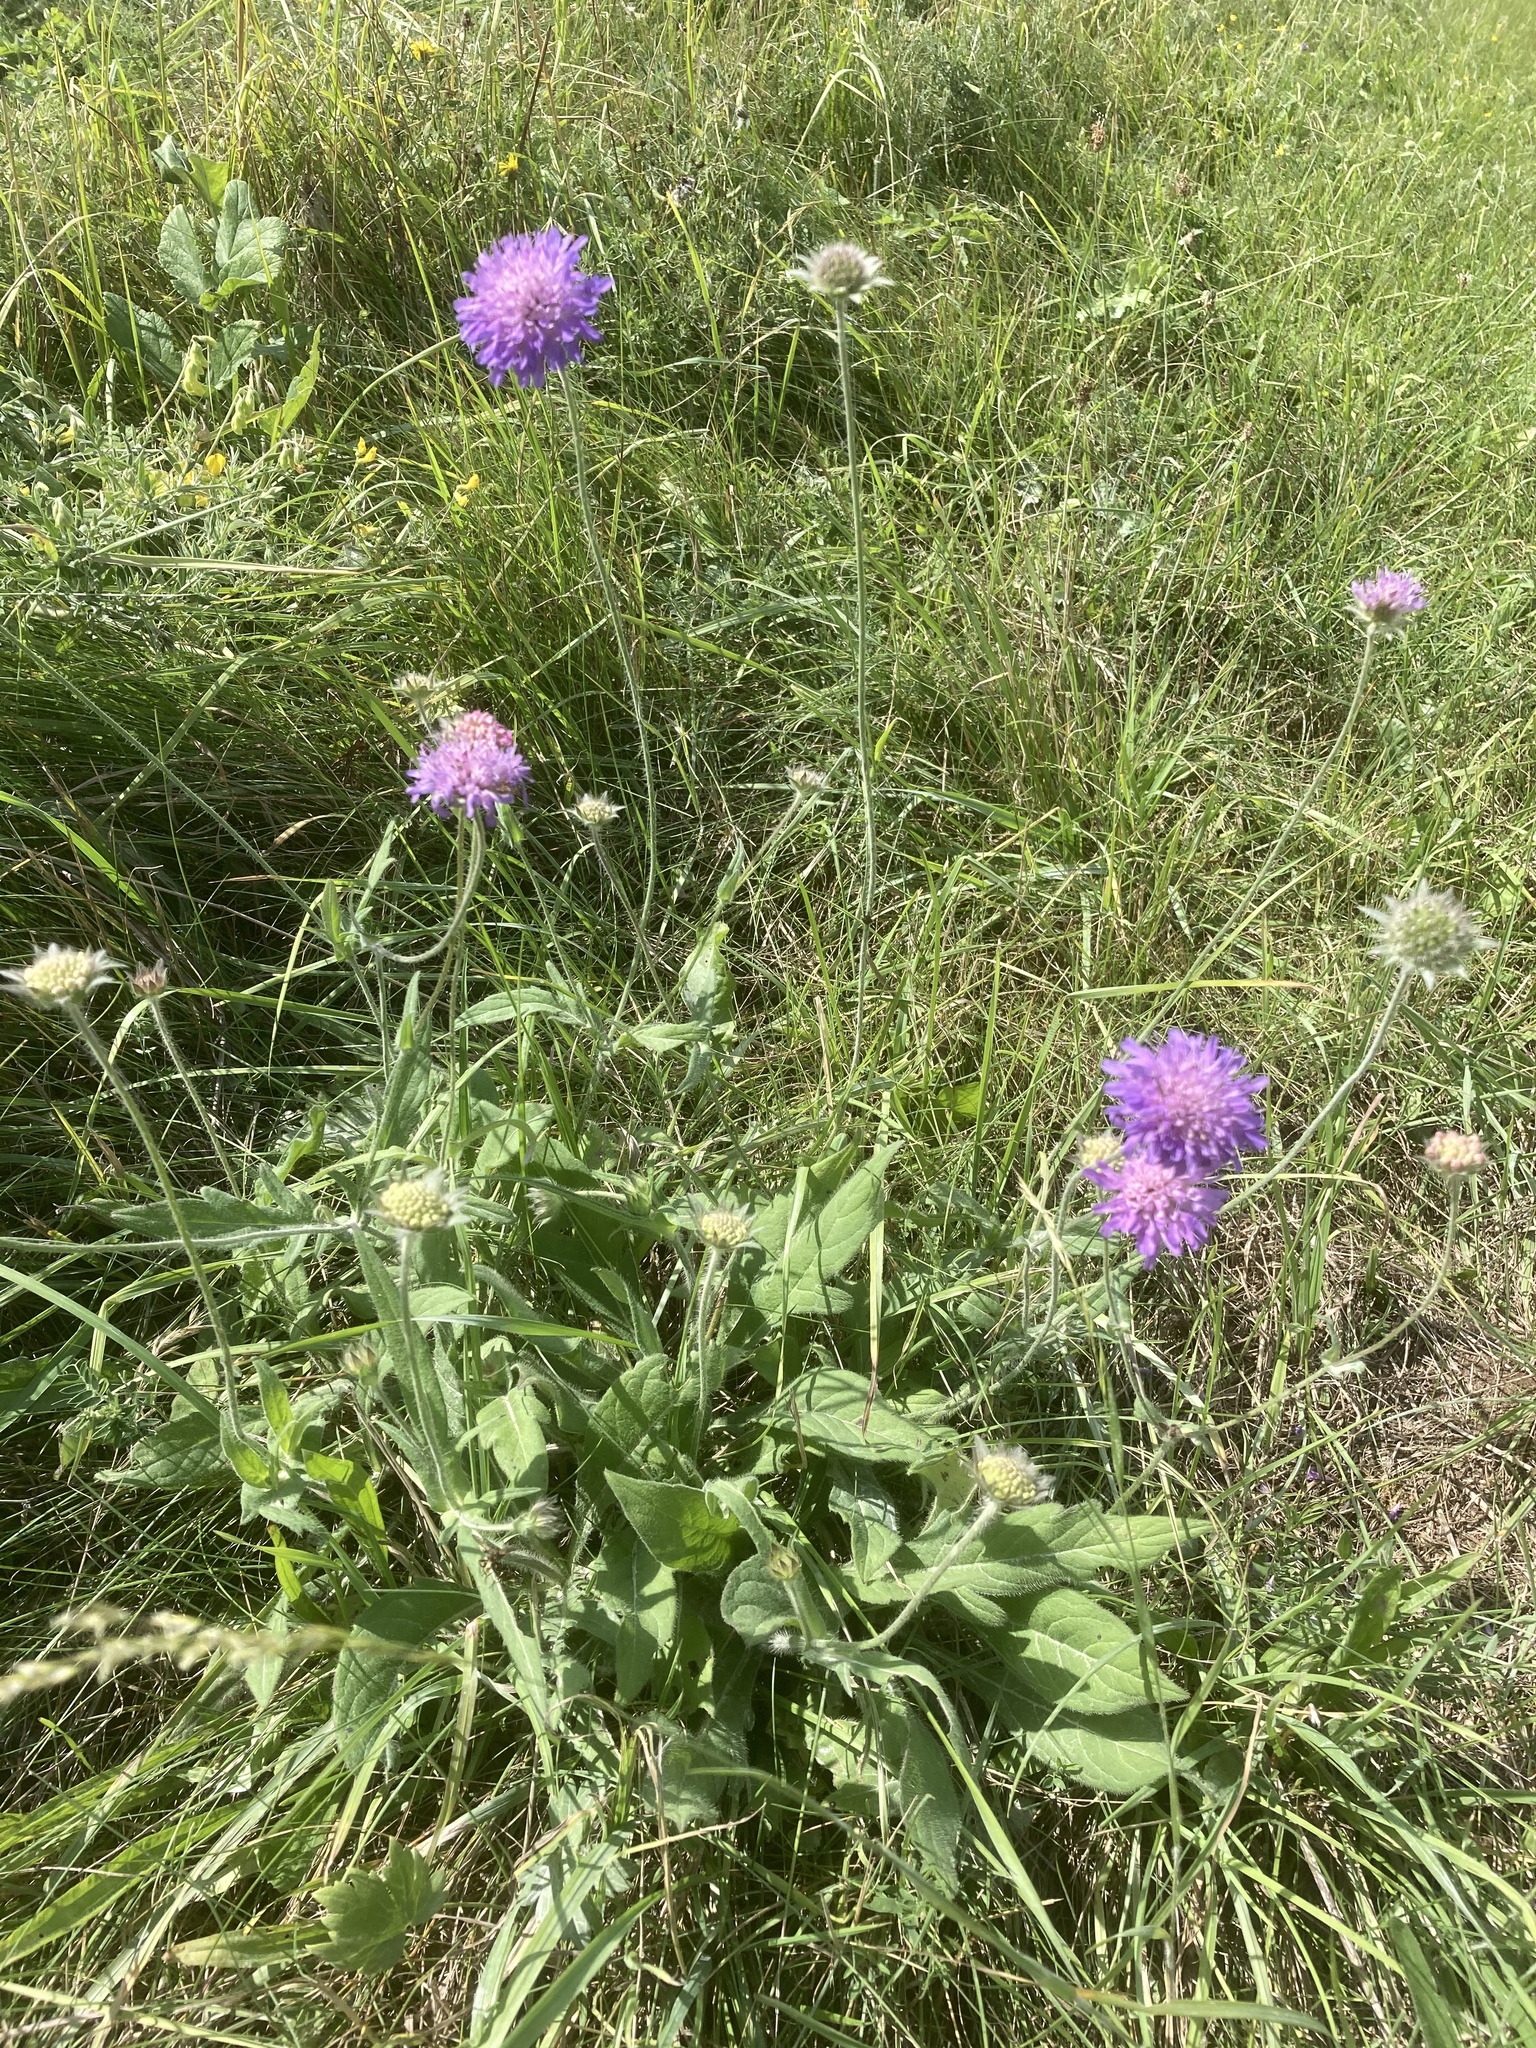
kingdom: Plantae
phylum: Tracheophyta
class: Magnoliopsida
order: Dipsacales
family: Caprifoliaceae
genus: Knautia
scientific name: Knautia arvensis
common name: Field scabiosa
